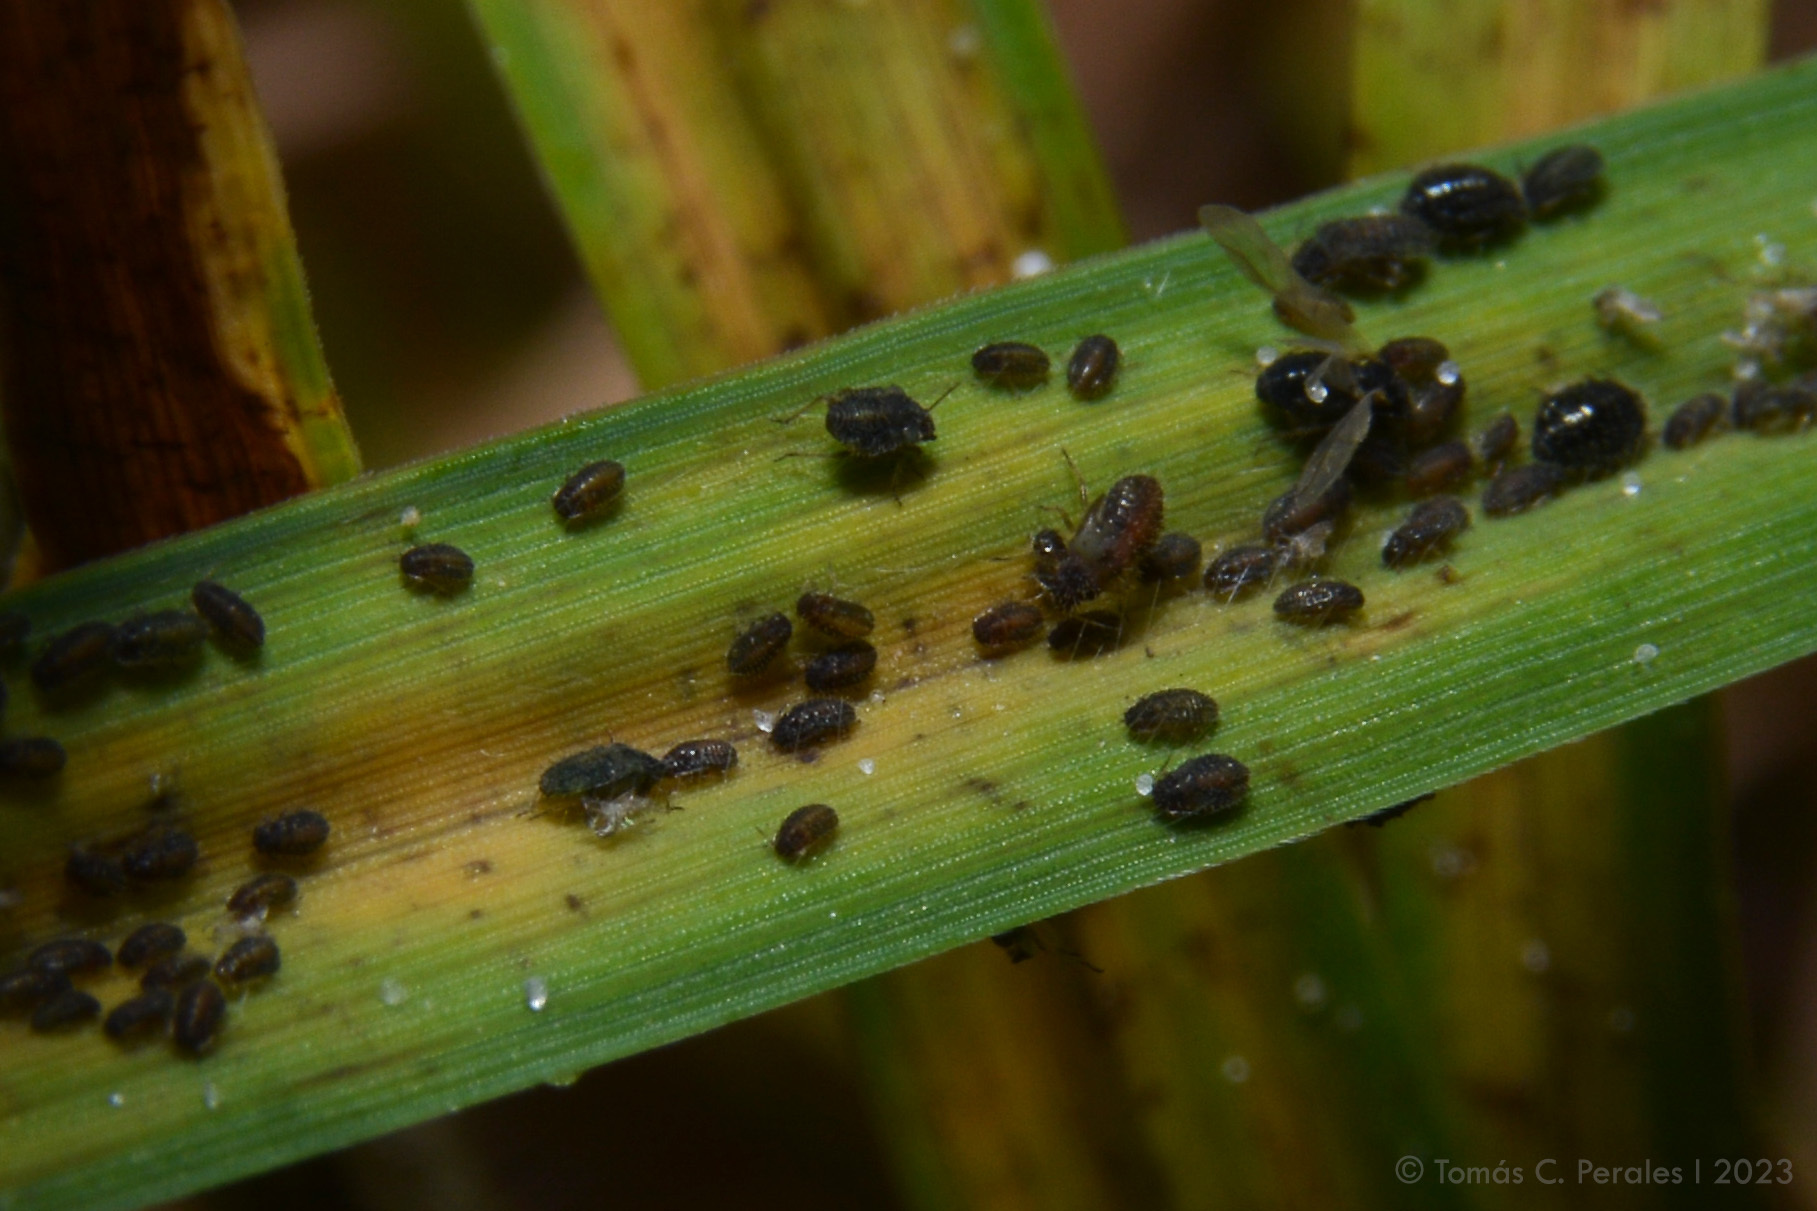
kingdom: Animalia
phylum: Arthropoda
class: Insecta
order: Hemiptera
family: Aphididae
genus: Sipha
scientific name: Sipha maydis
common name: Aphid
